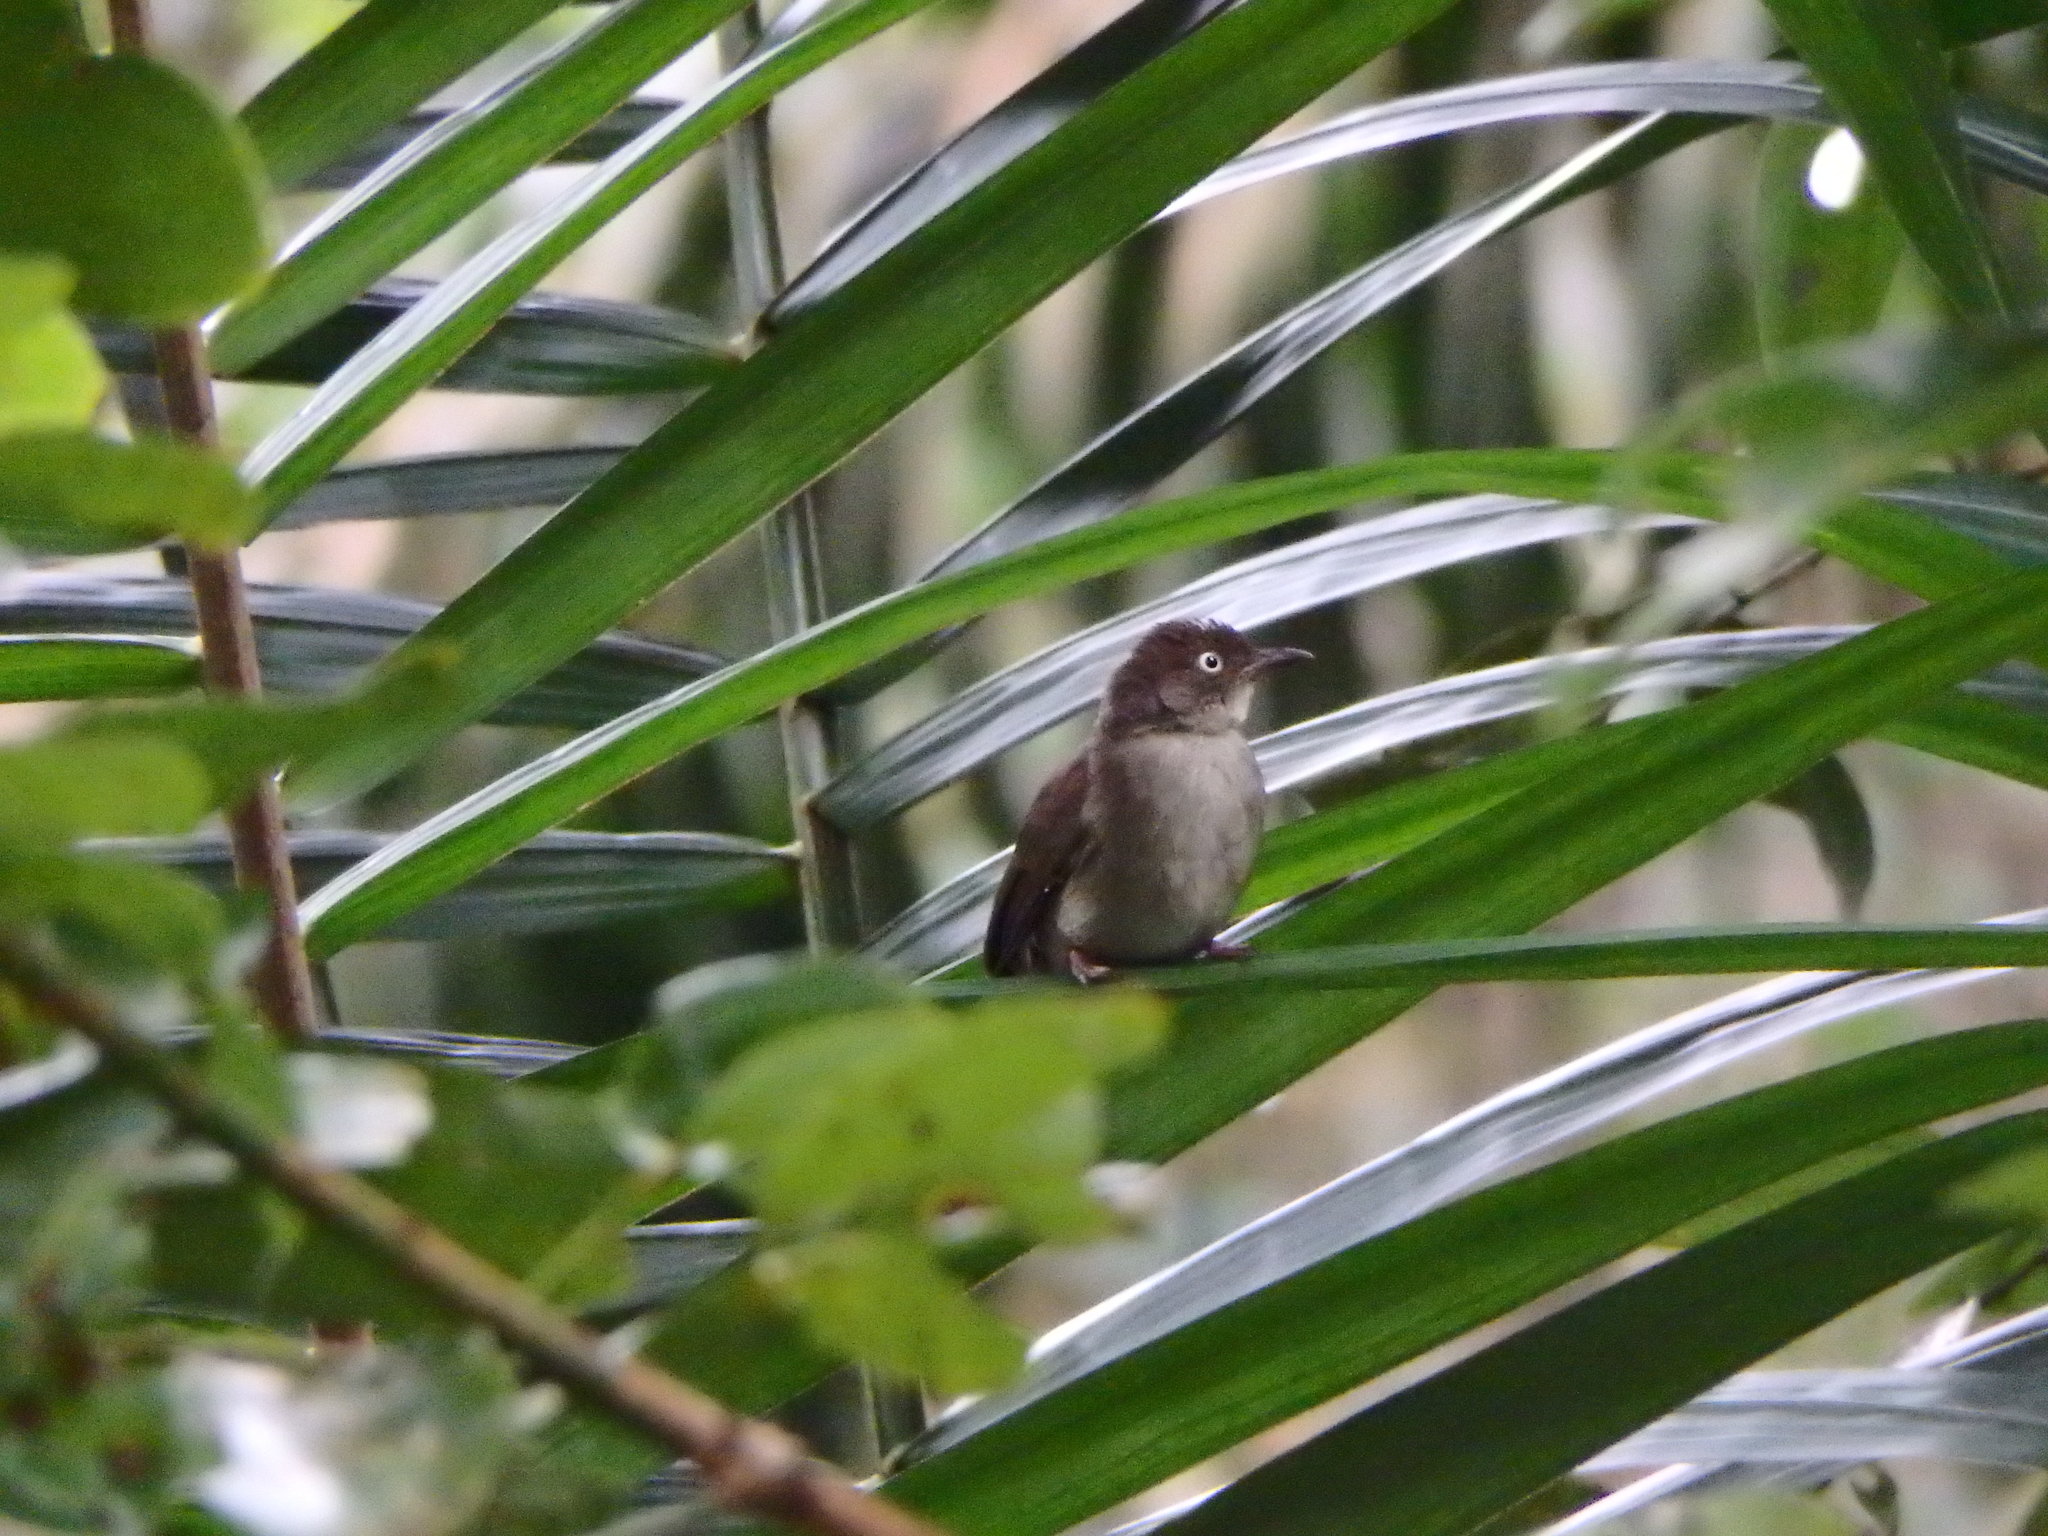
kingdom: Animalia
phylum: Chordata
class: Aves
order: Passeriformes
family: Pycnonotidae
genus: Pycnonotus
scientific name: Pycnonotus simplex
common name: Cream-vented bulbul
